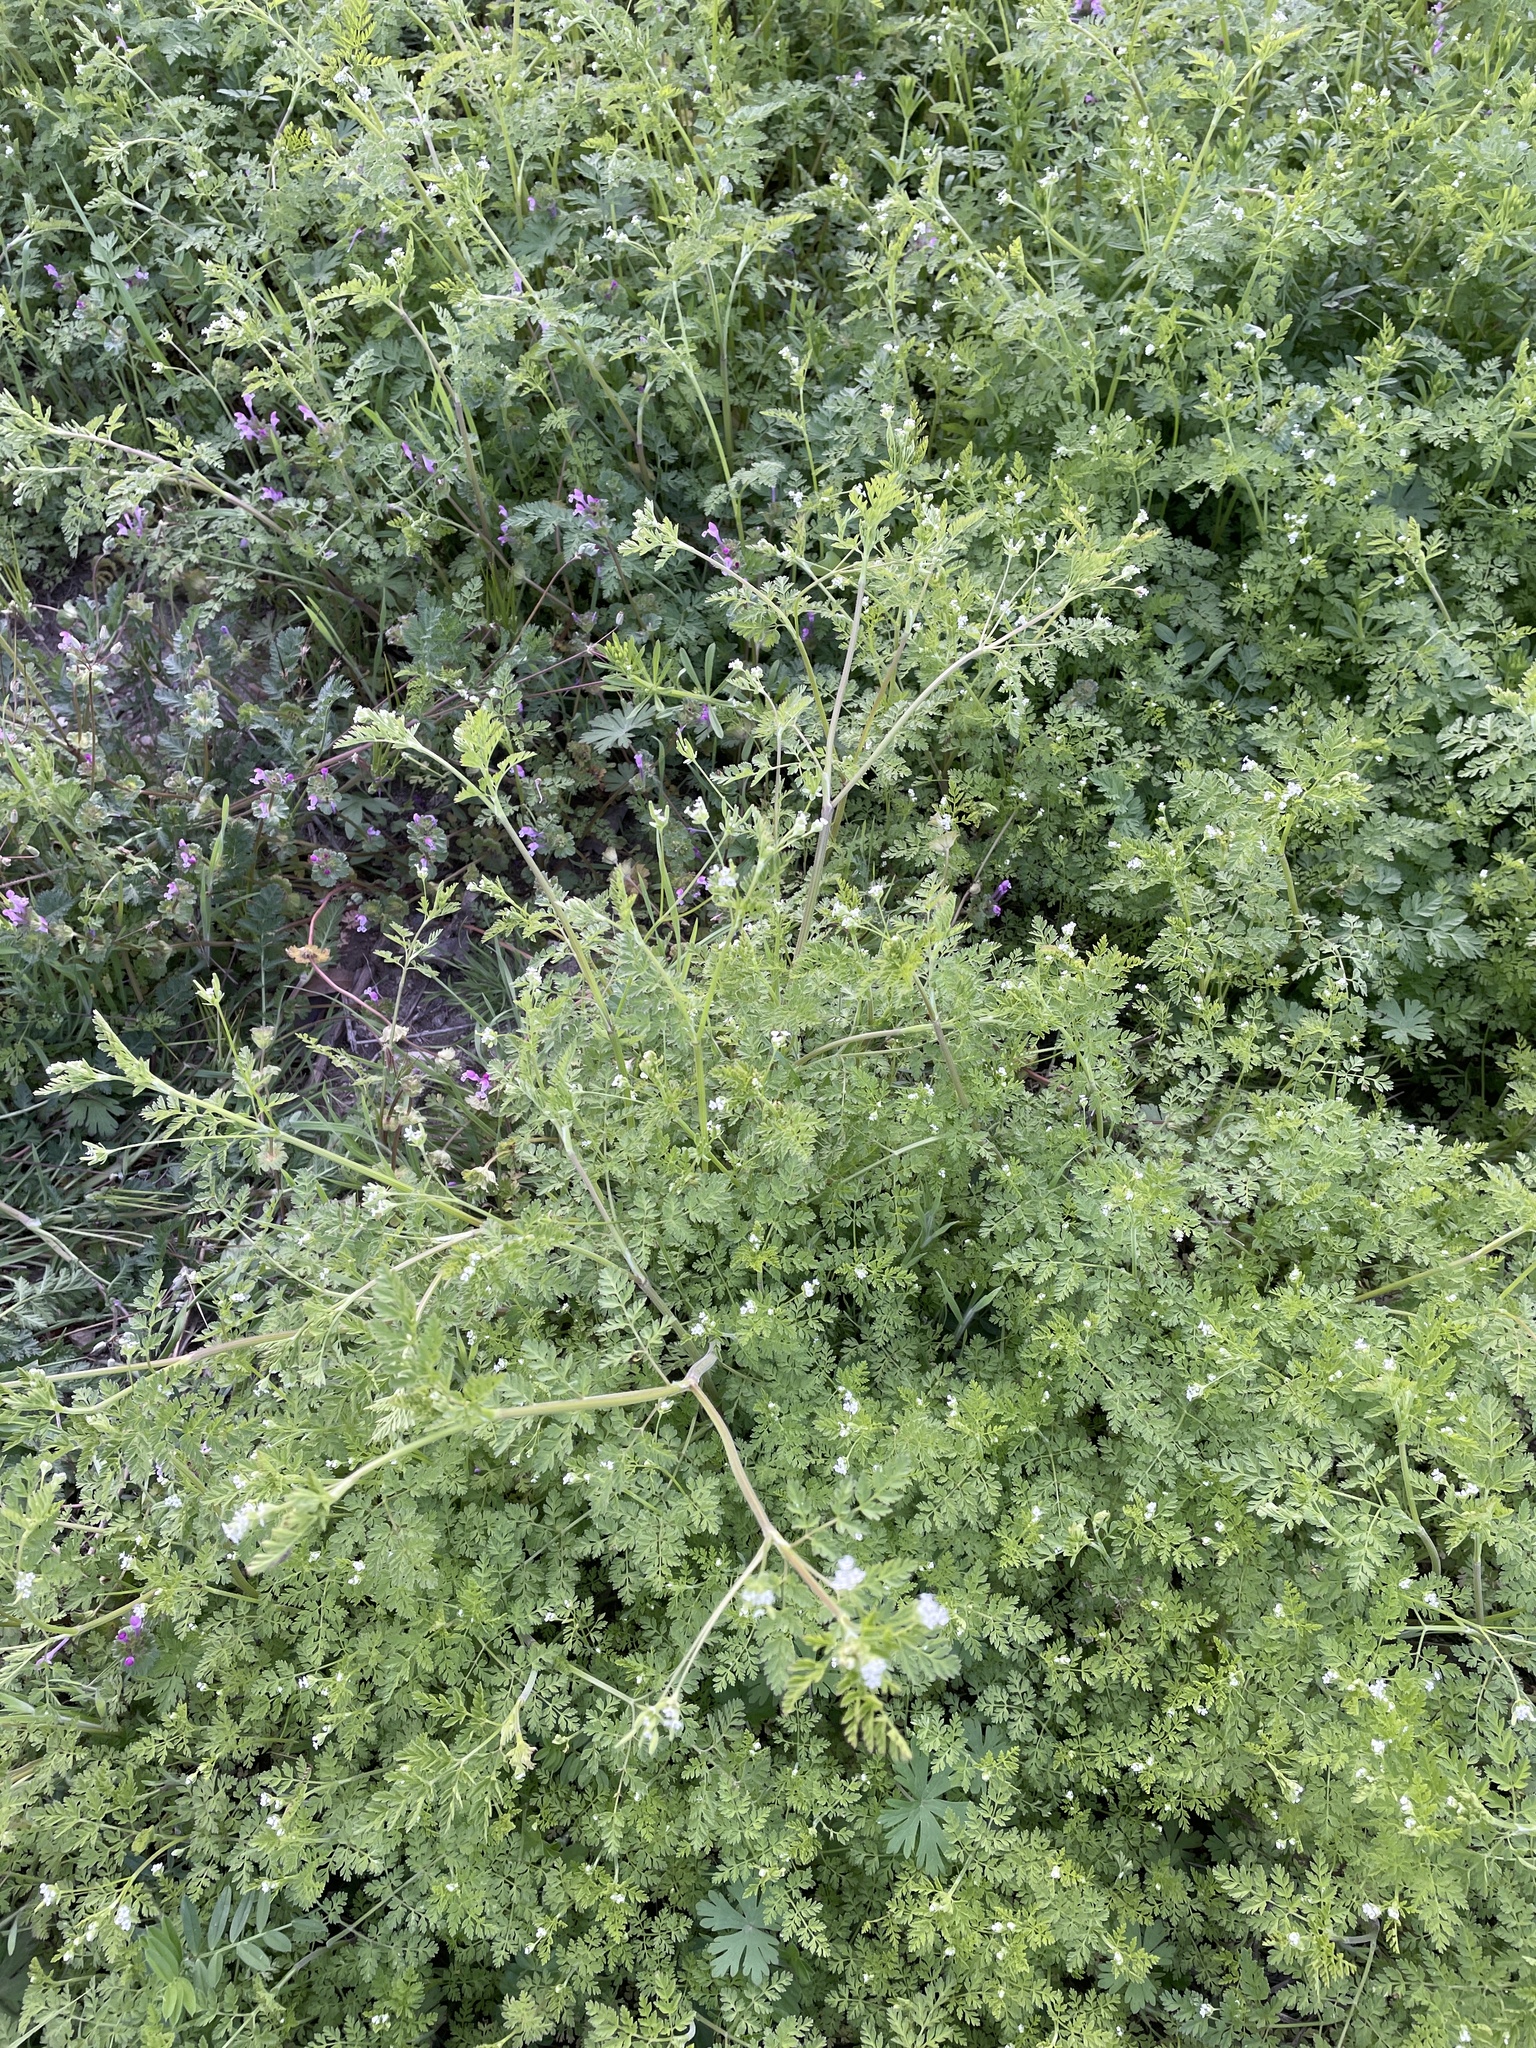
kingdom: Plantae
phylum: Tracheophyta
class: Magnoliopsida
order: Apiales
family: Apiaceae
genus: Chaerophyllum
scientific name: Chaerophyllum tainturieri
